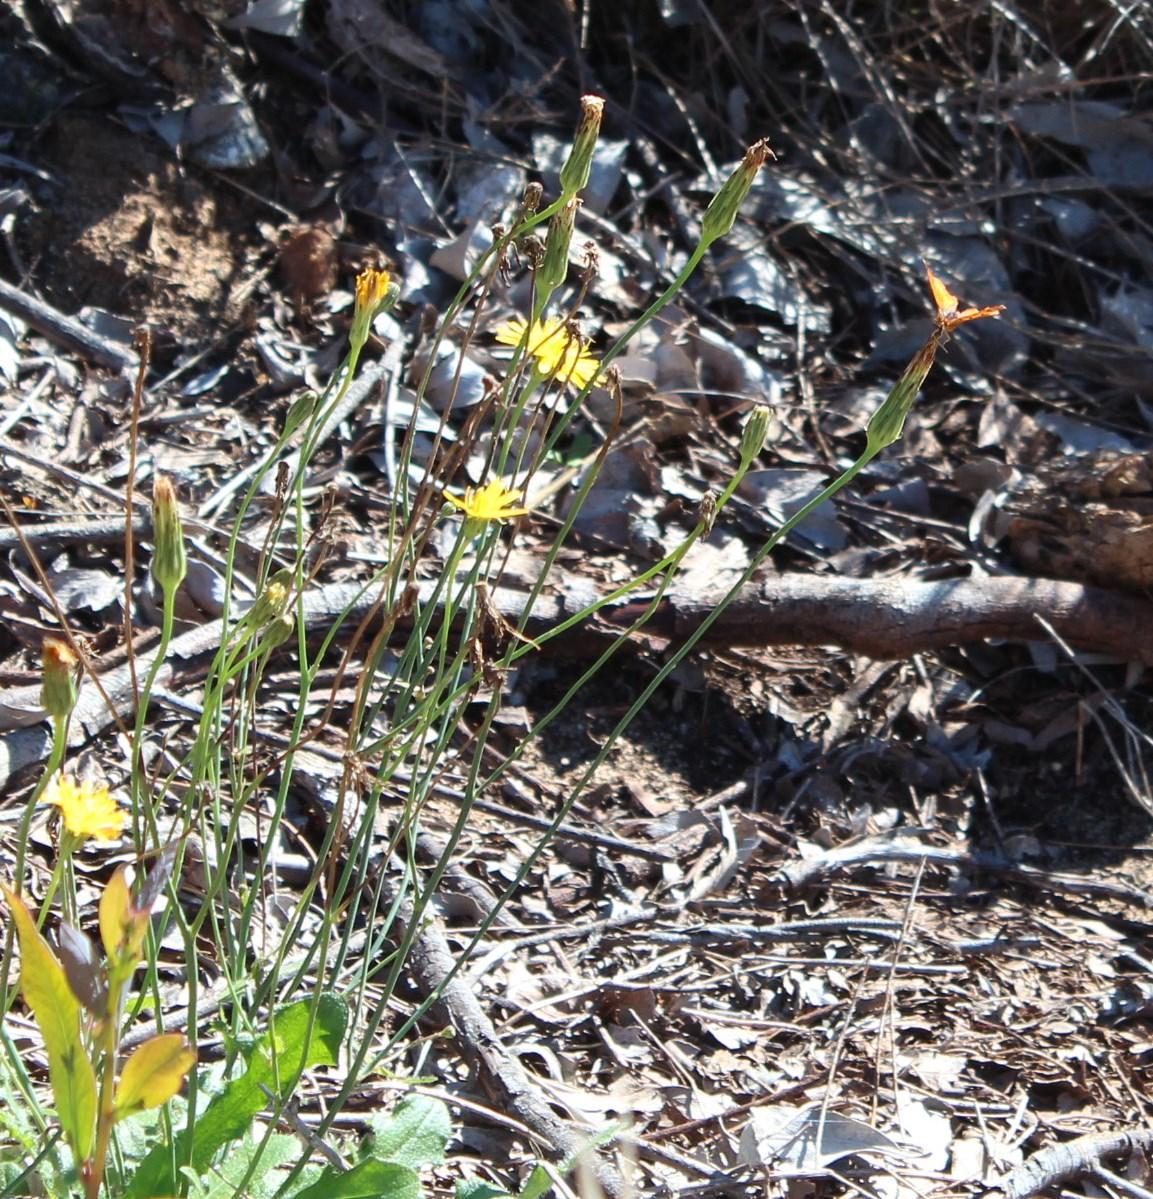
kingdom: Plantae
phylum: Tracheophyta
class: Magnoliopsida
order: Asterales
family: Asteraceae
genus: Hypochaeris
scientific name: Hypochaeris radicata
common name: Flatweed
